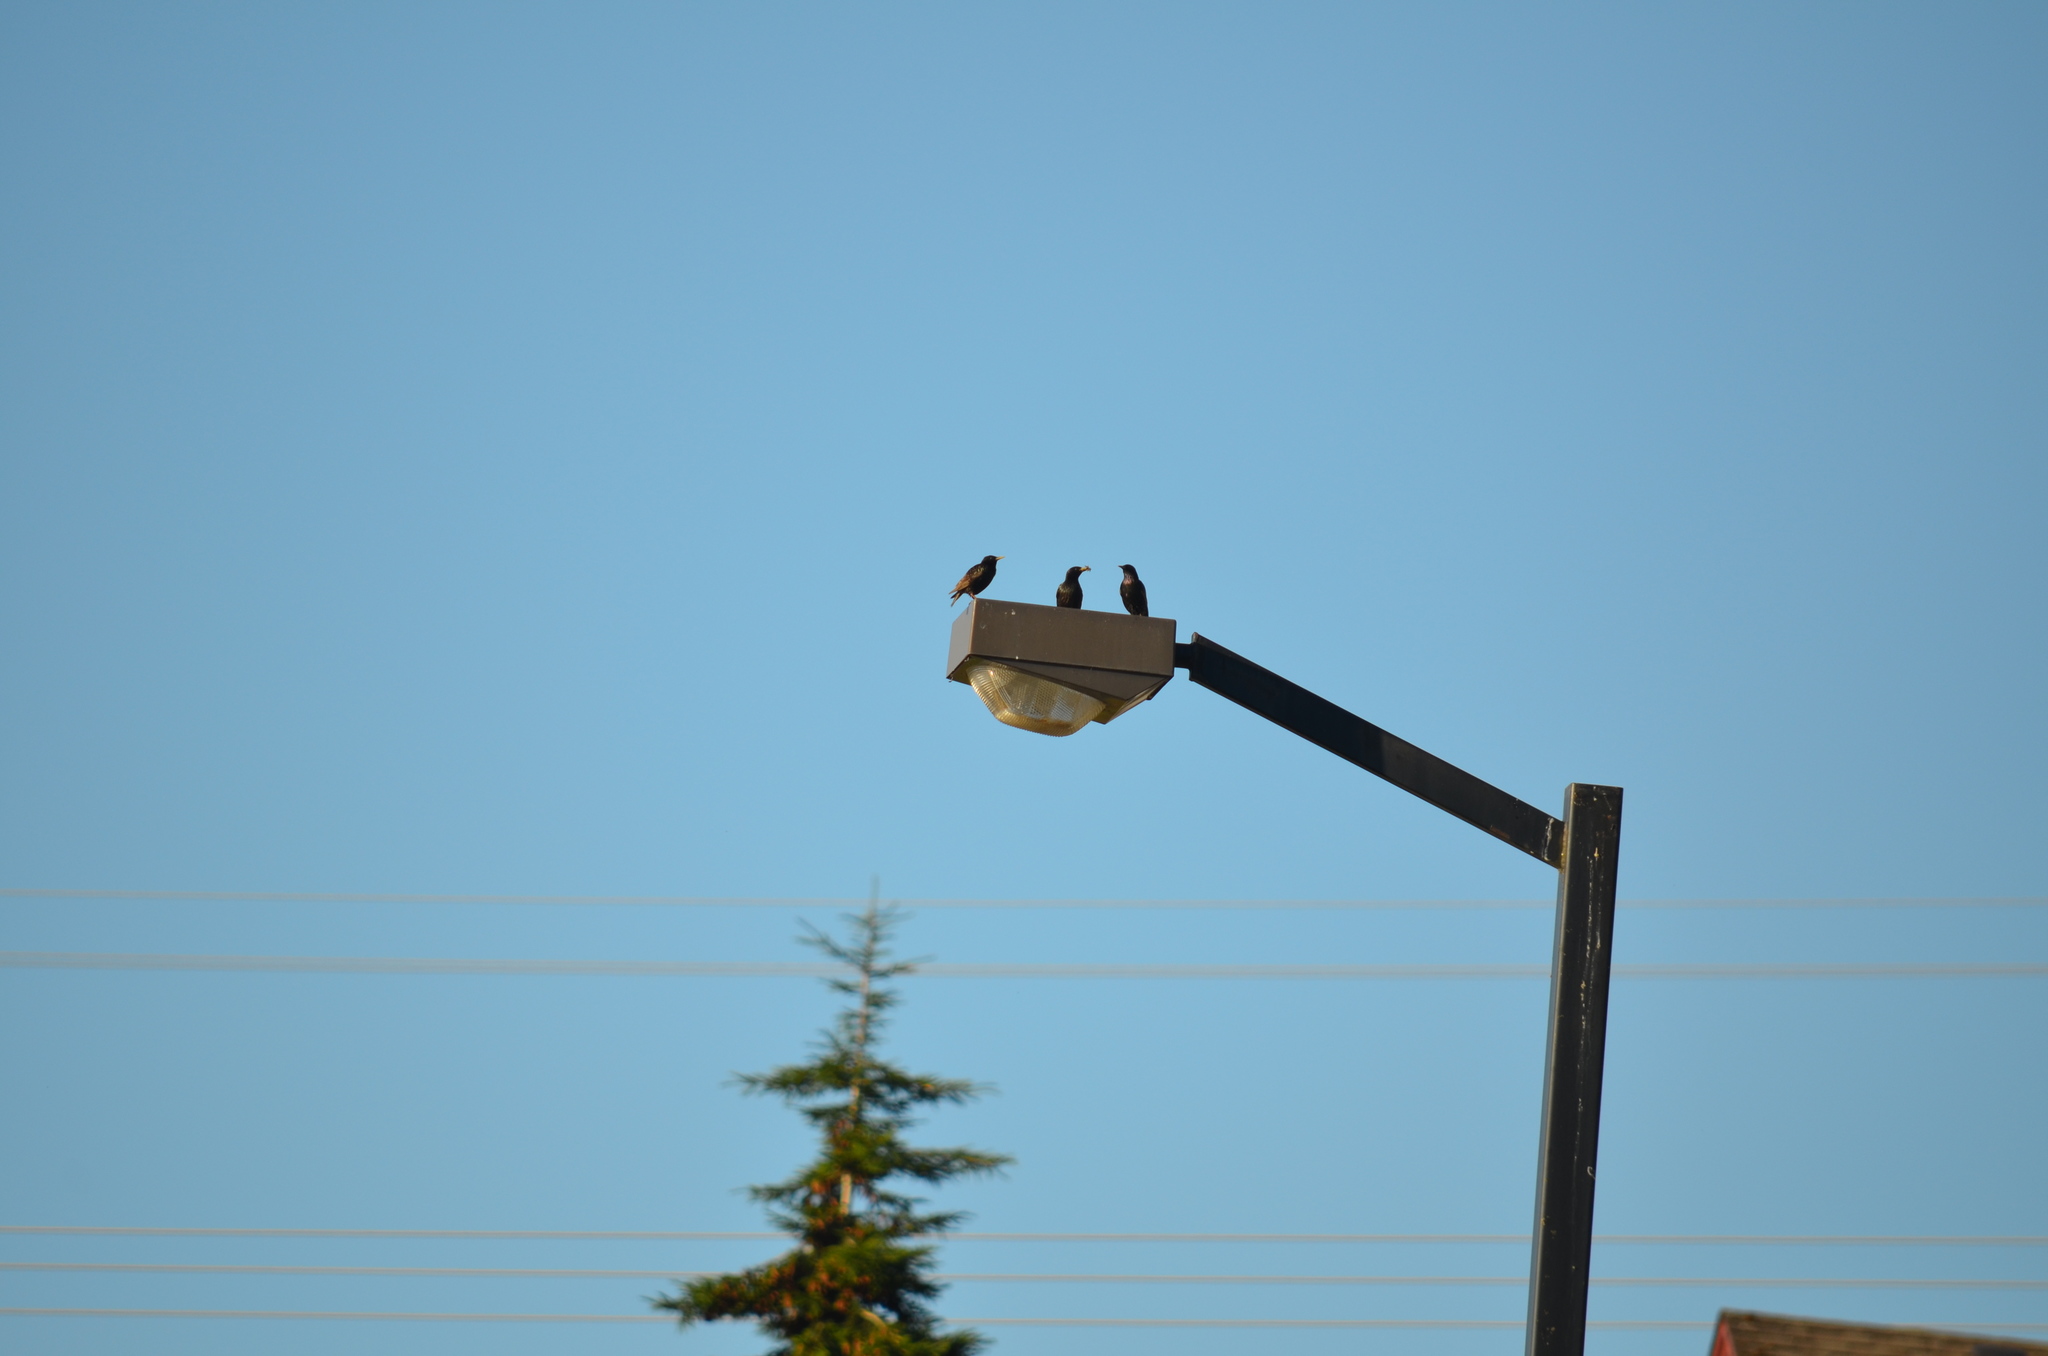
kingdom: Animalia
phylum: Chordata
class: Aves
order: Passeriformes
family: Sturnidae
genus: Sturnus
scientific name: Sturnus vulgaris
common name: Common starling
